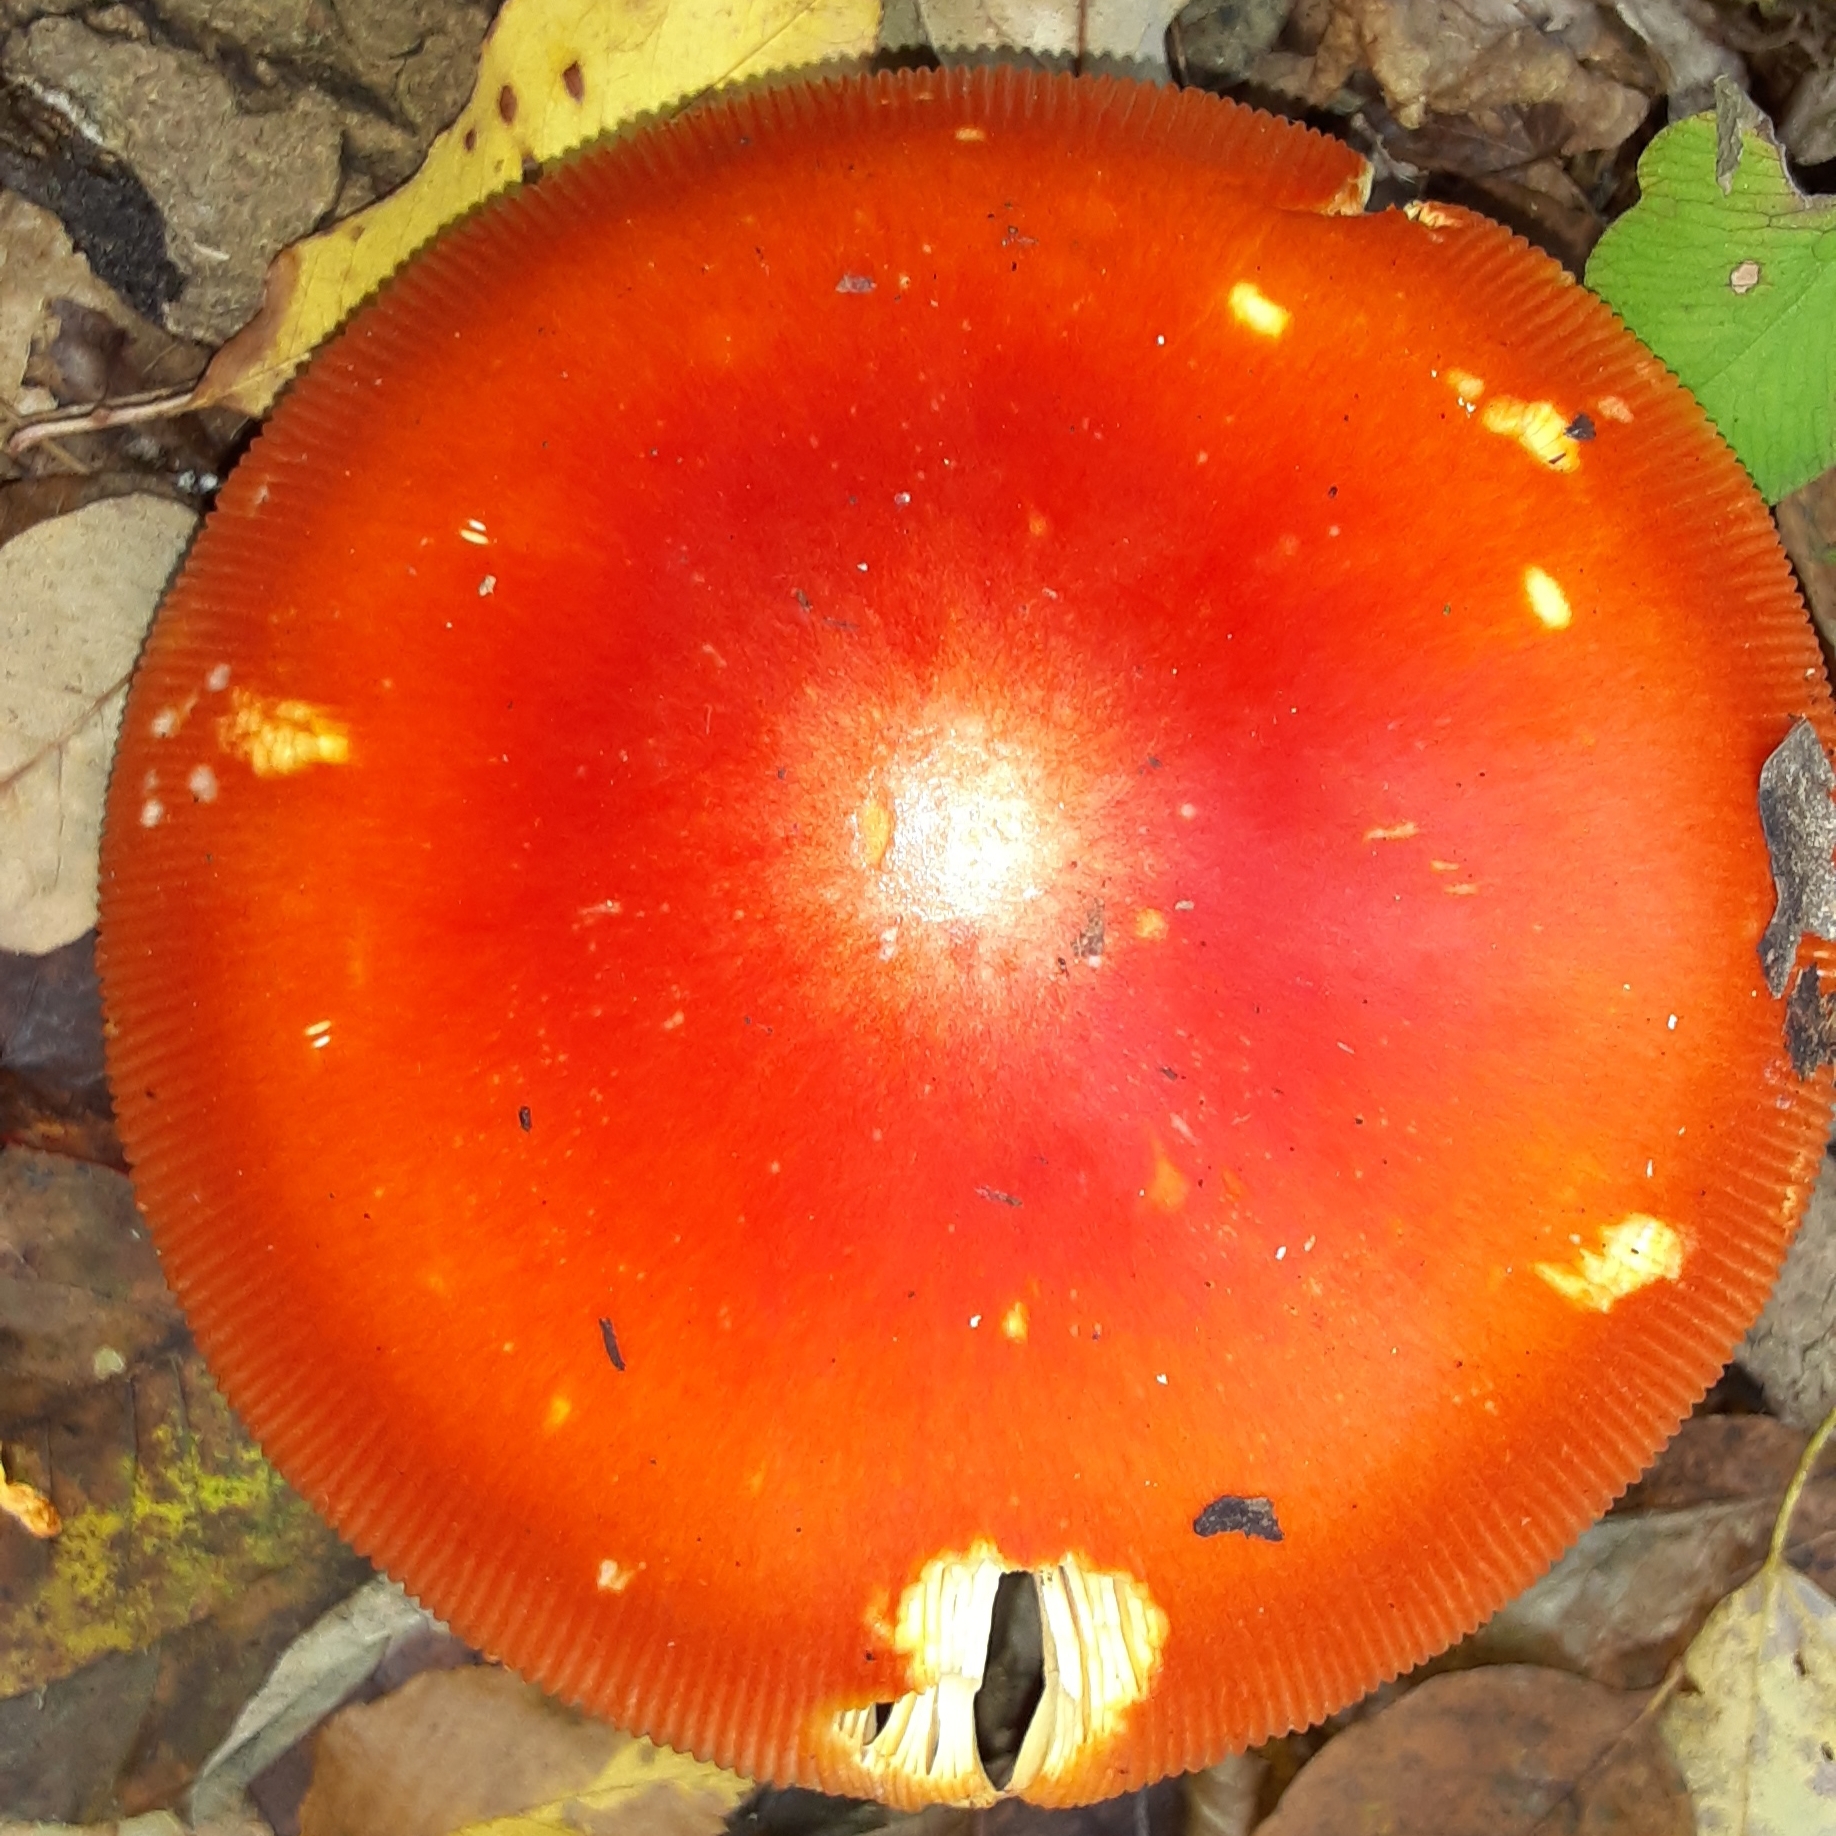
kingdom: Fungi
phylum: Basidiomycota
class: Agaricomycetes
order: Agaricales
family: Amanitaceae
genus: Amanita
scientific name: Amanita jacksonii
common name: Jackson's slender caesar
